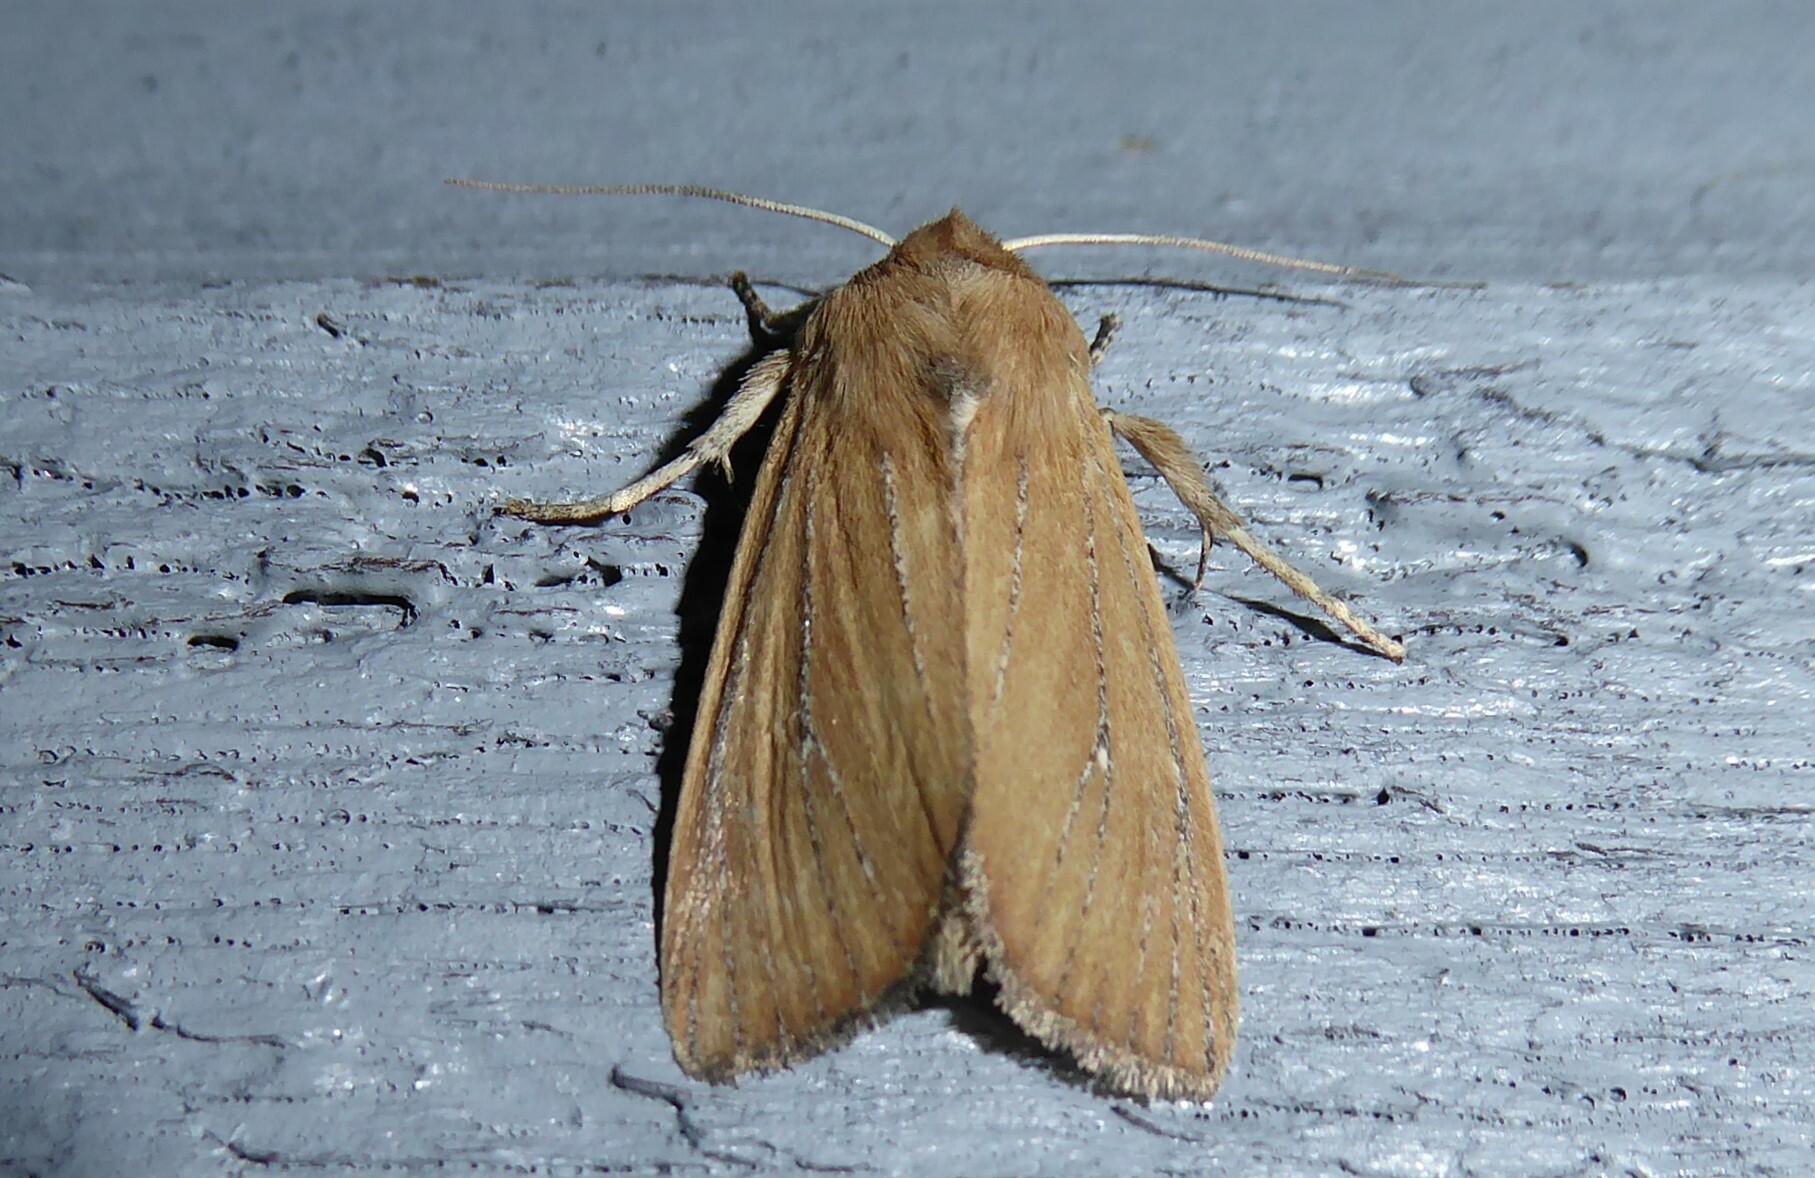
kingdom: Animalia
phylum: Arthropoda
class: Insecta
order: Lepidoptera
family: Noctuidae
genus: Ichneutica
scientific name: Ichneutica blenheimensis
